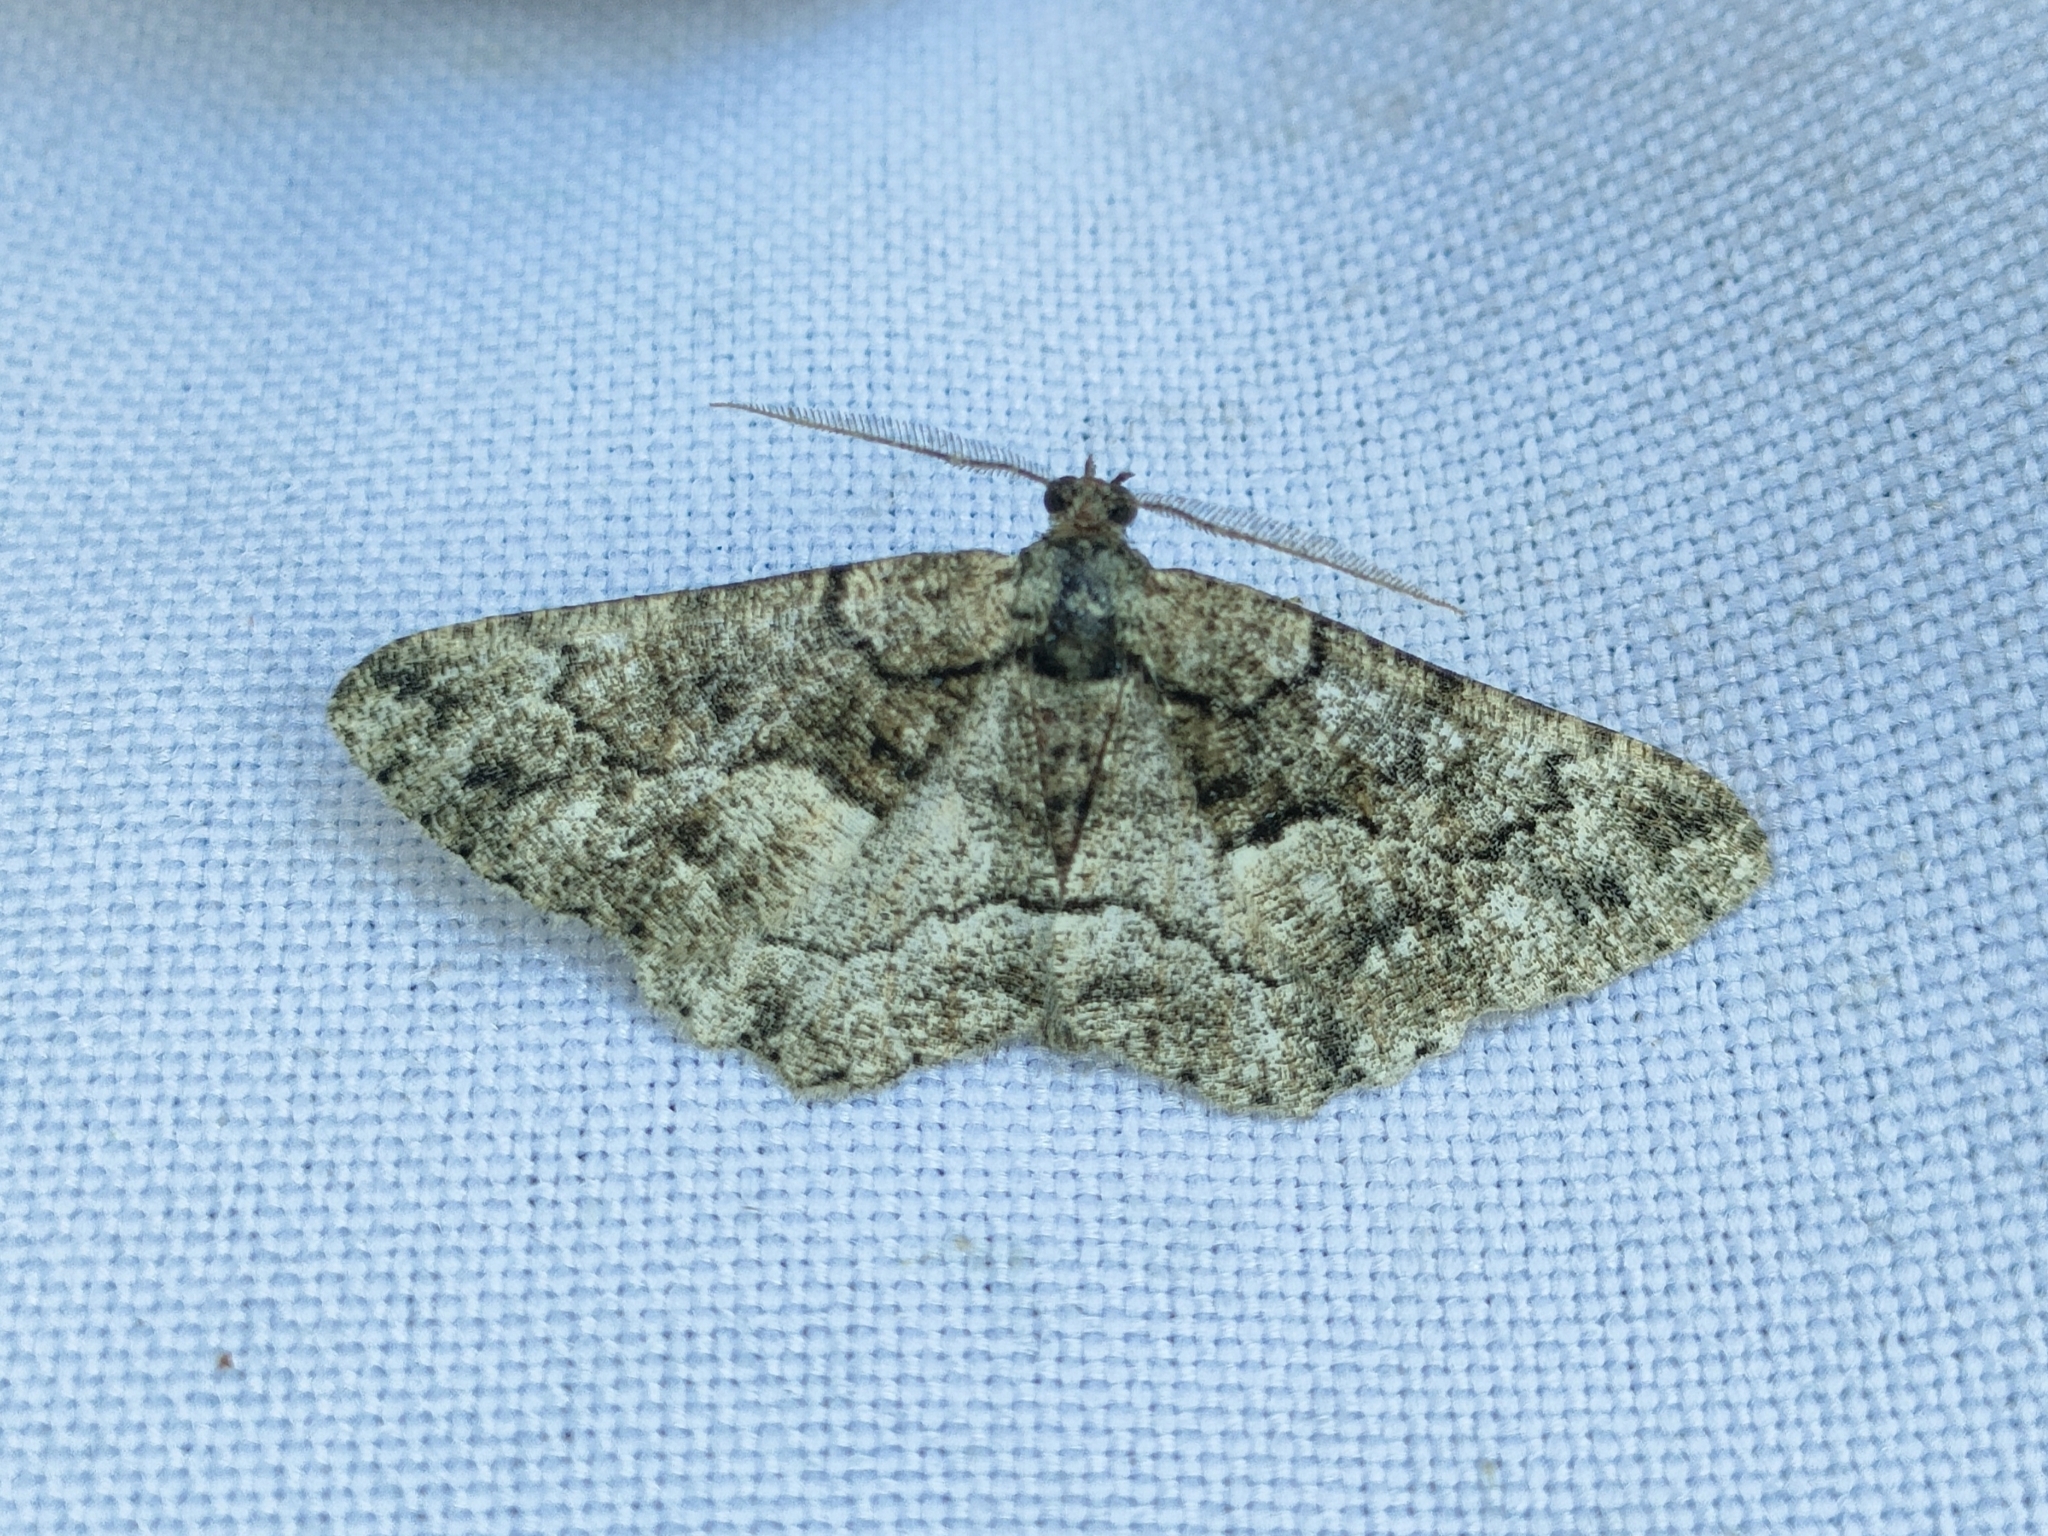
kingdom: Animalia
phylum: Arthropoda
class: Insecta
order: Lepidoptera
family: Geometridae
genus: Peribatodes
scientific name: Peribatodes ilicaria
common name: Lydd beauty
